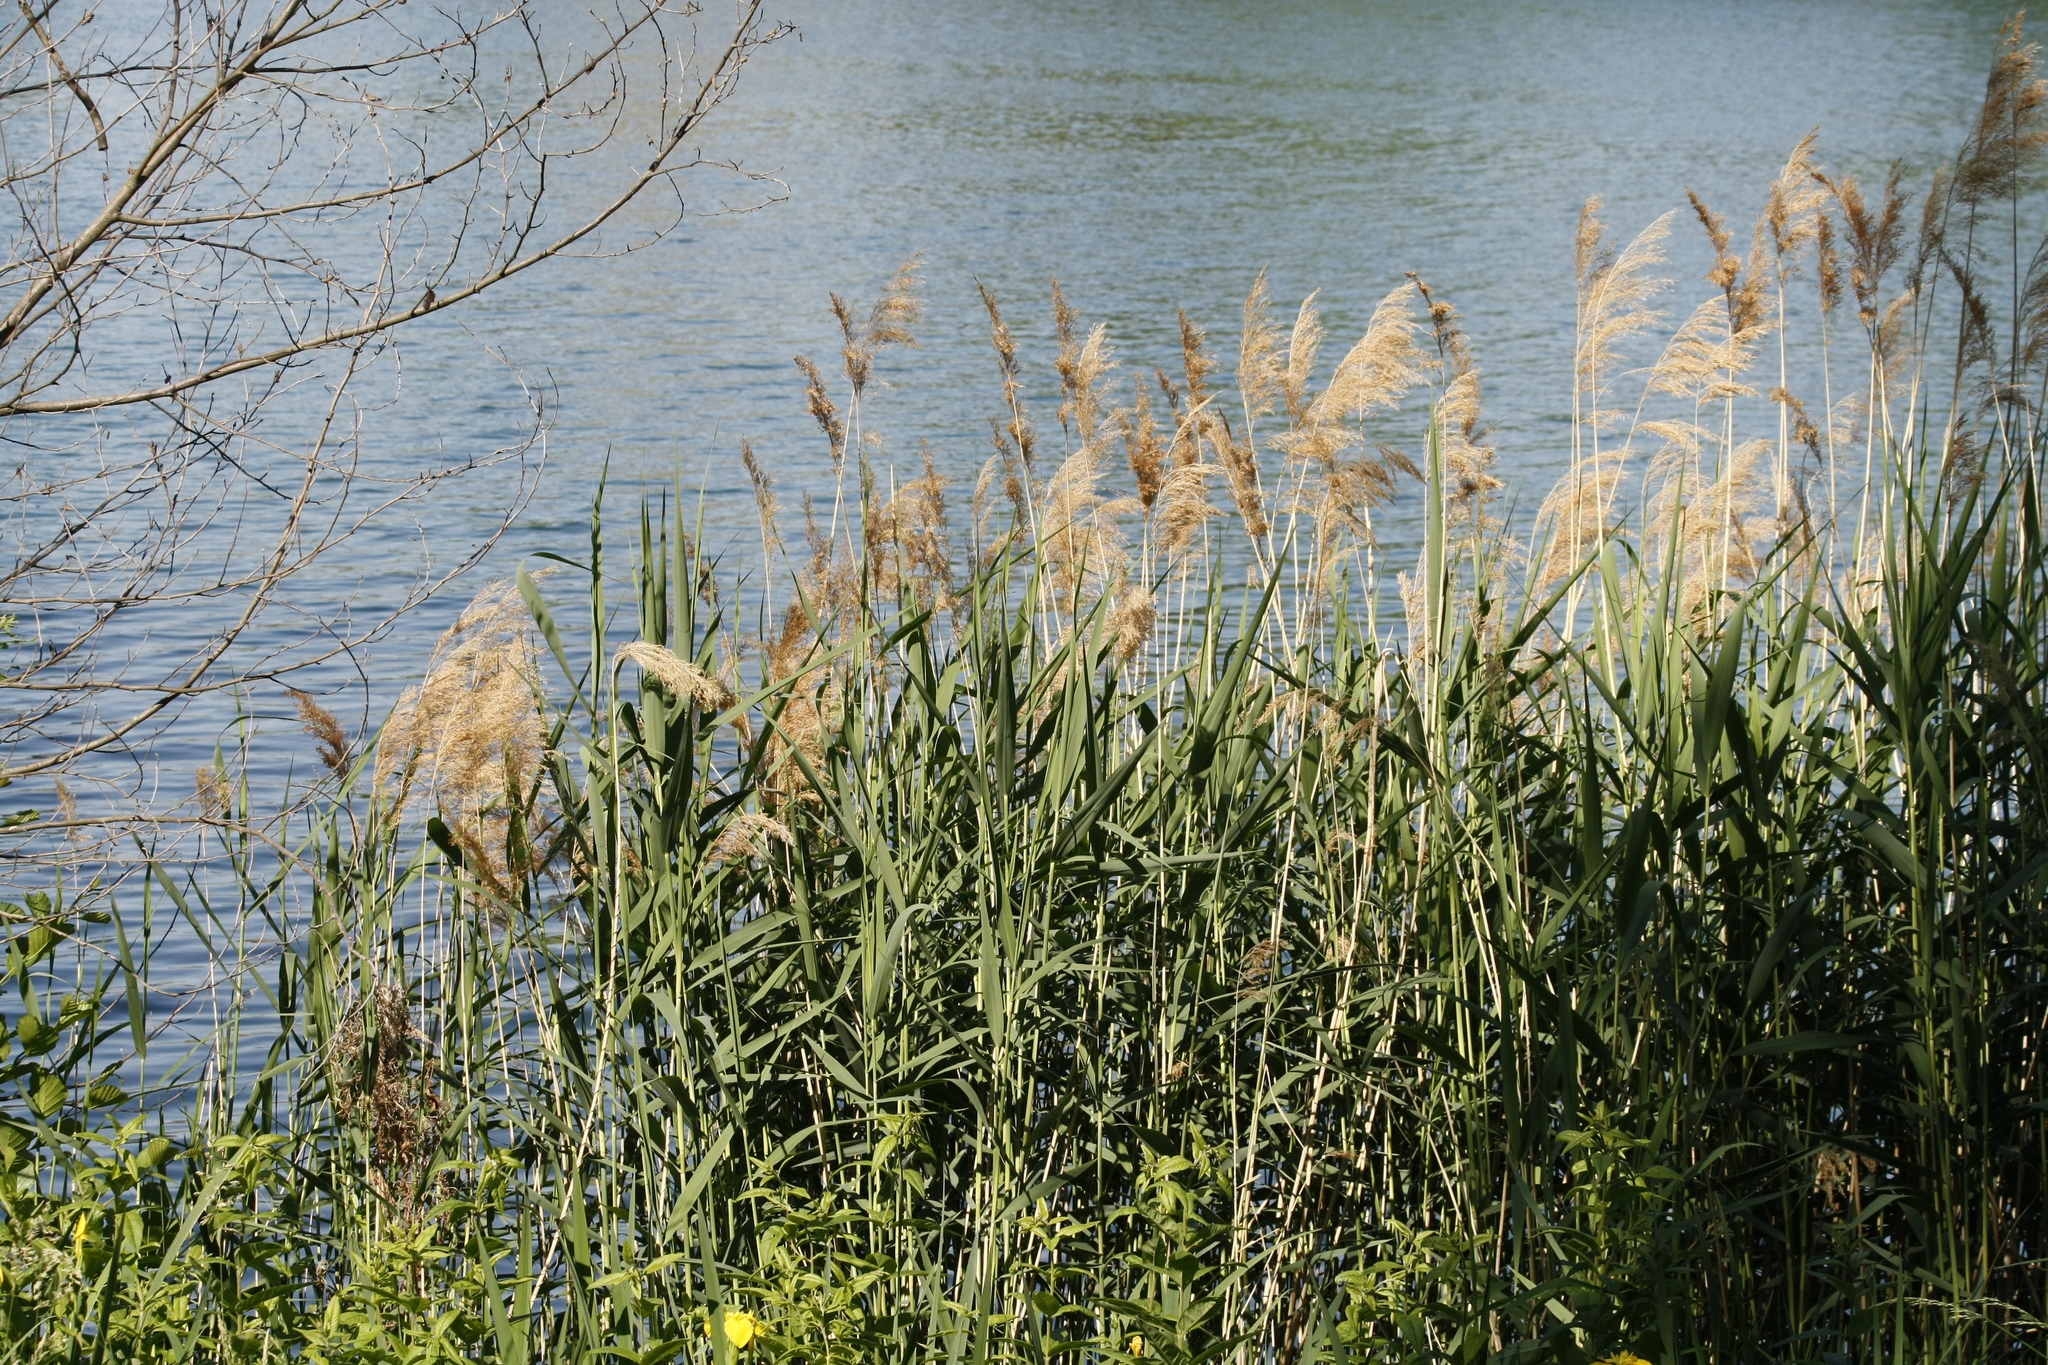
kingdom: Plantae
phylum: Tracheophyta
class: Liliopsida
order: Poales
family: Poaceae
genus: Phragmites
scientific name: Phragmites australis
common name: Common reed
